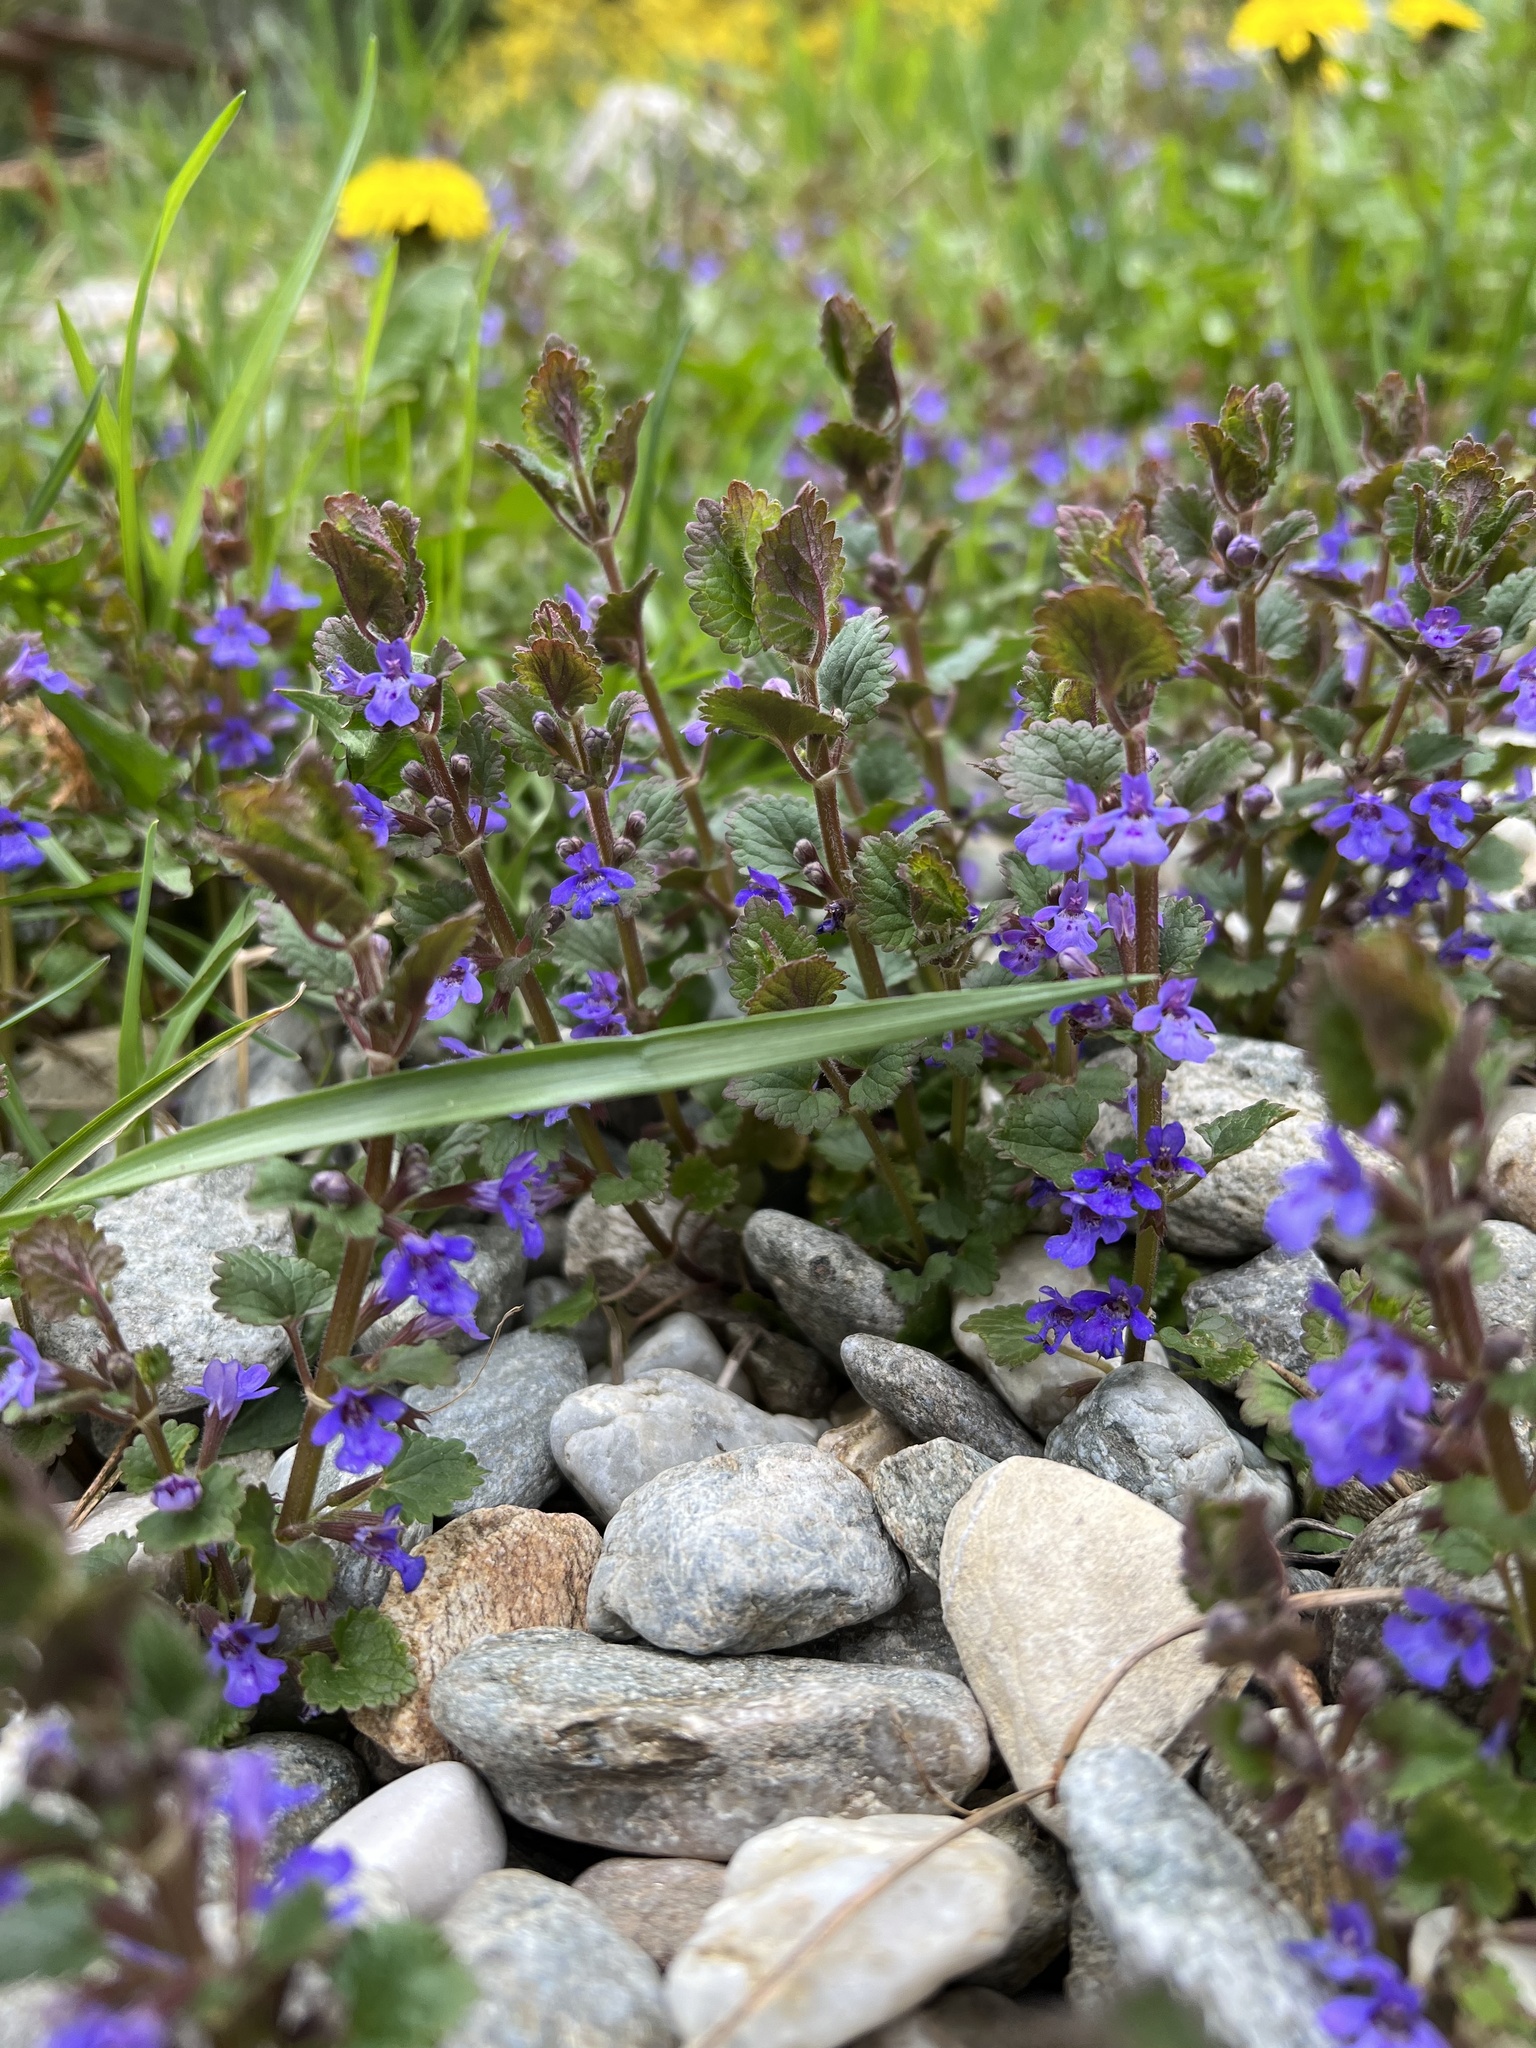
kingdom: Plantae
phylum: Tracheophyta
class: Magnoliopsida
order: Lamiales
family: Lamiaceae
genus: Glechoma
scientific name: Glechoma hederacea
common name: Ground ivy
